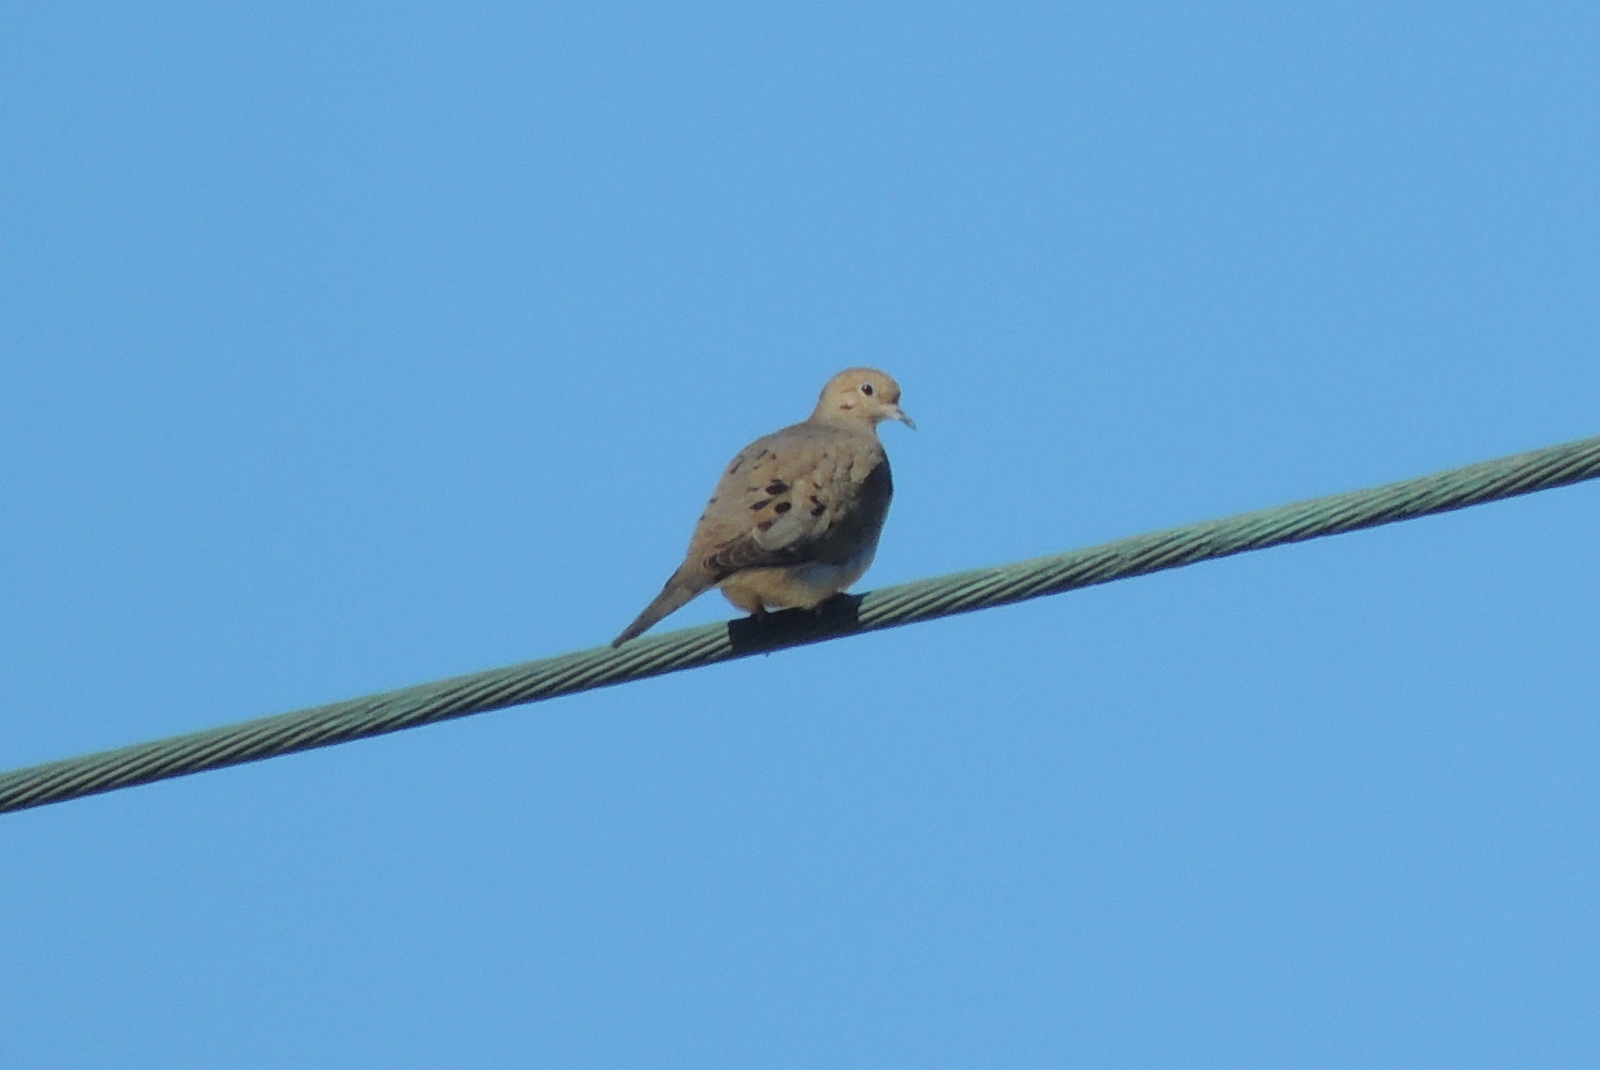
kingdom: Animalia
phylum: Chordata
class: Aves
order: Columbiformes
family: Columbidae
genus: Zenaida
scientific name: Zenaida macroura
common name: Mourning dove
